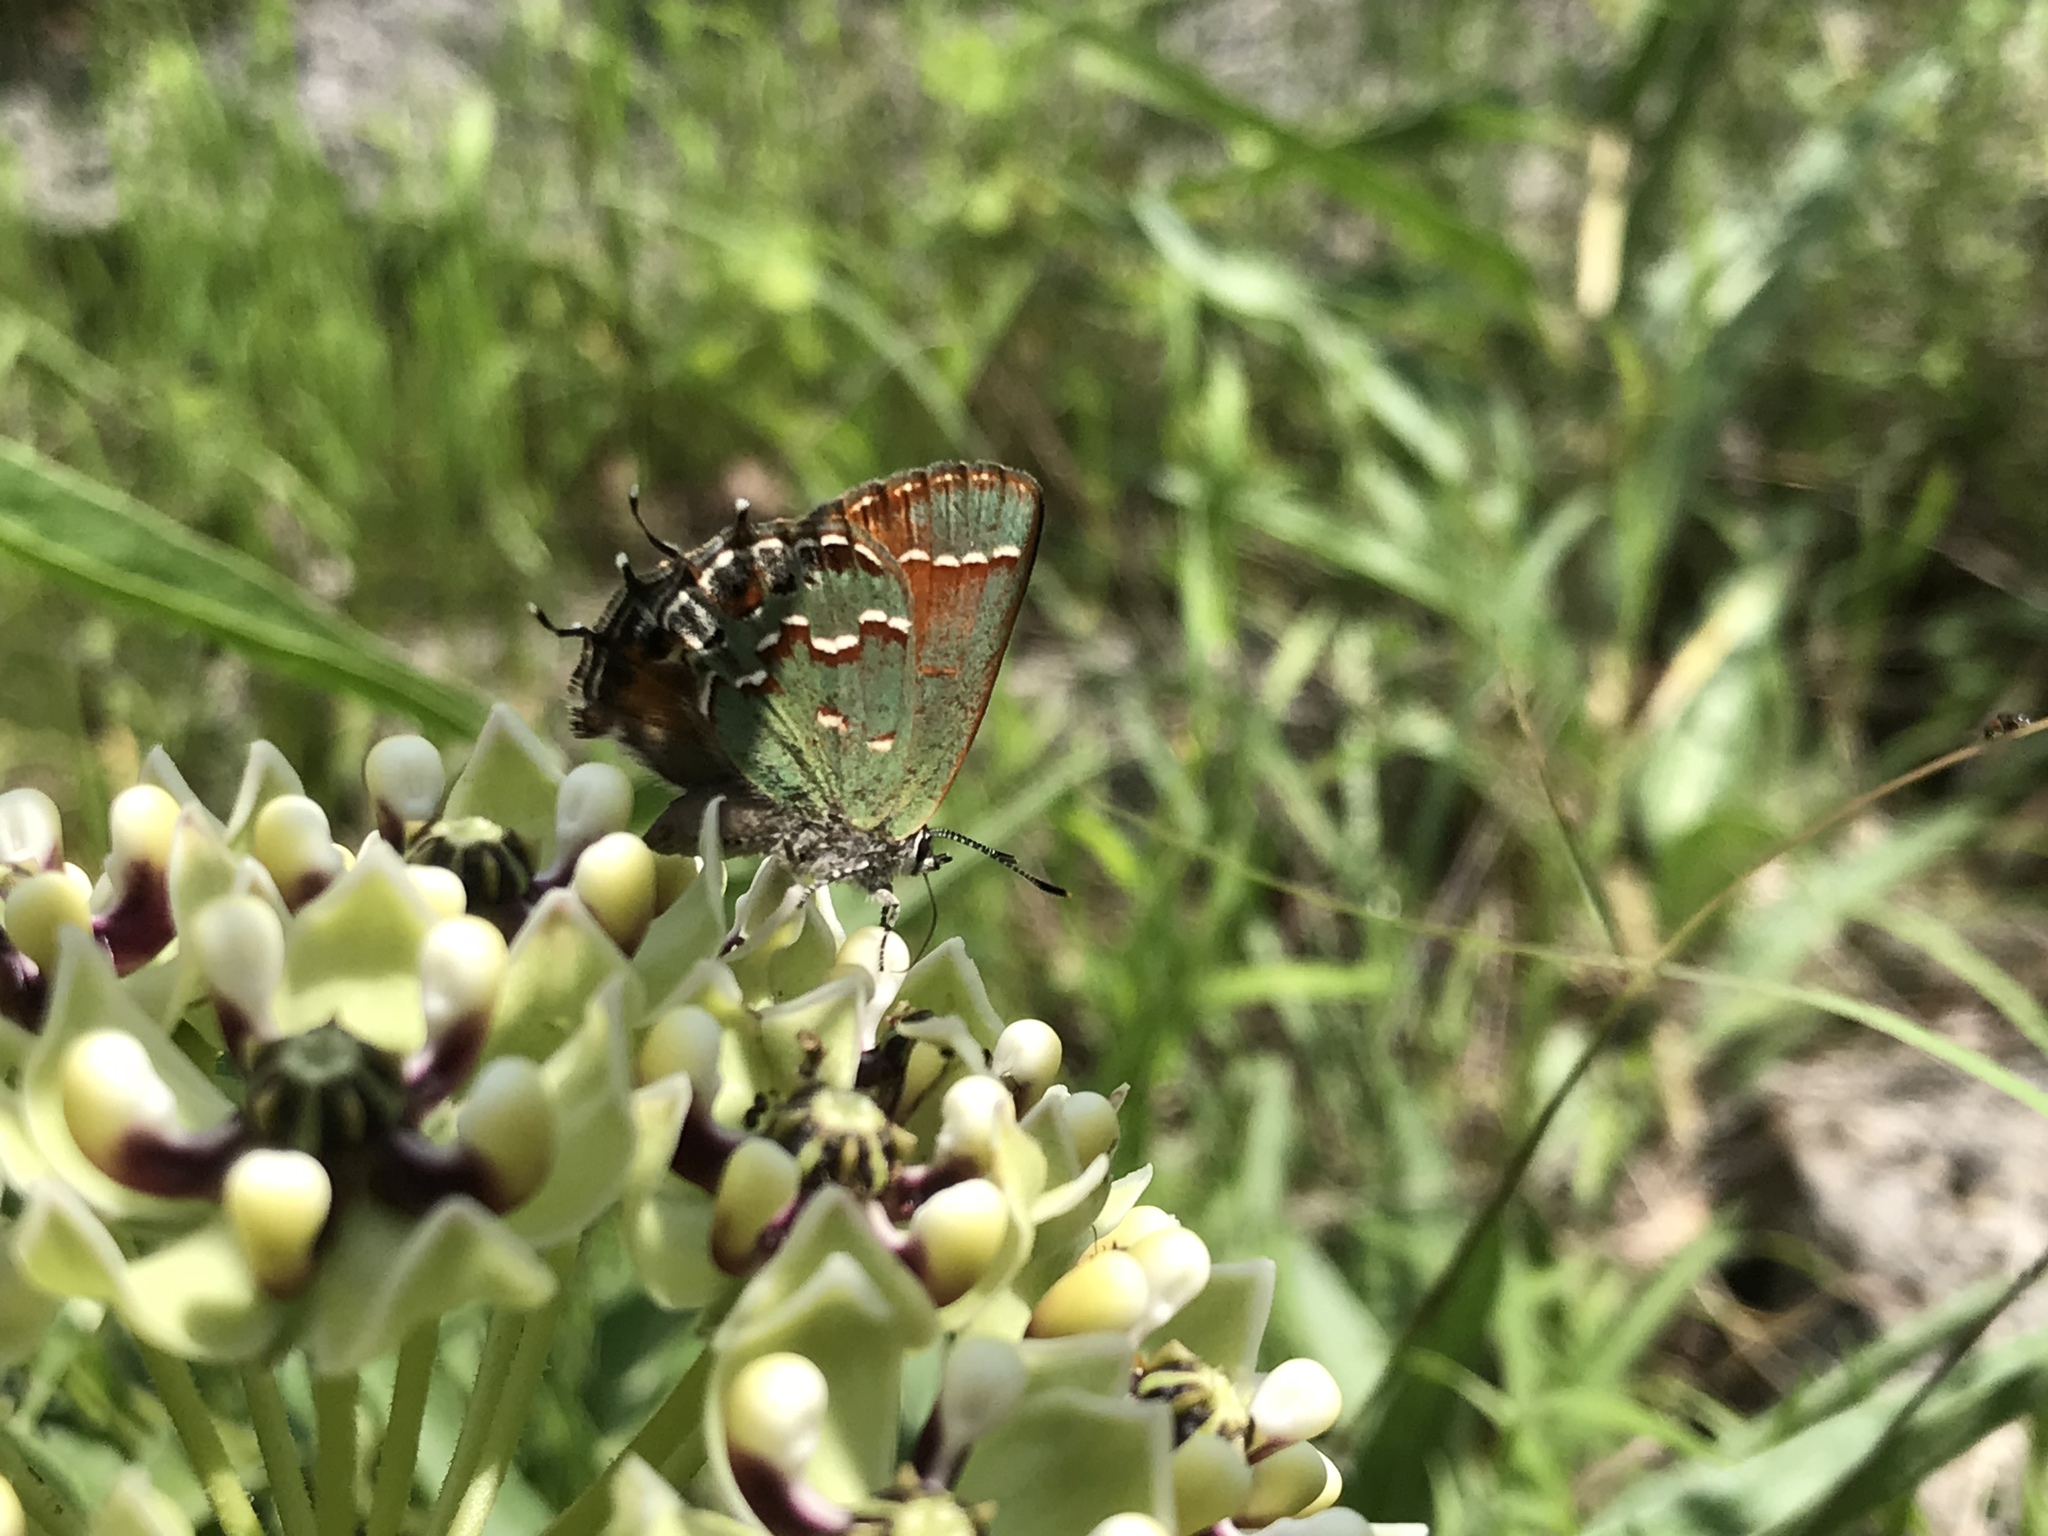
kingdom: Animalia
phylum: Arthropoda
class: Insecta
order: Lepidoptera
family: Lycaenidae
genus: Mitoura
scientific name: Mitoura gryneus
